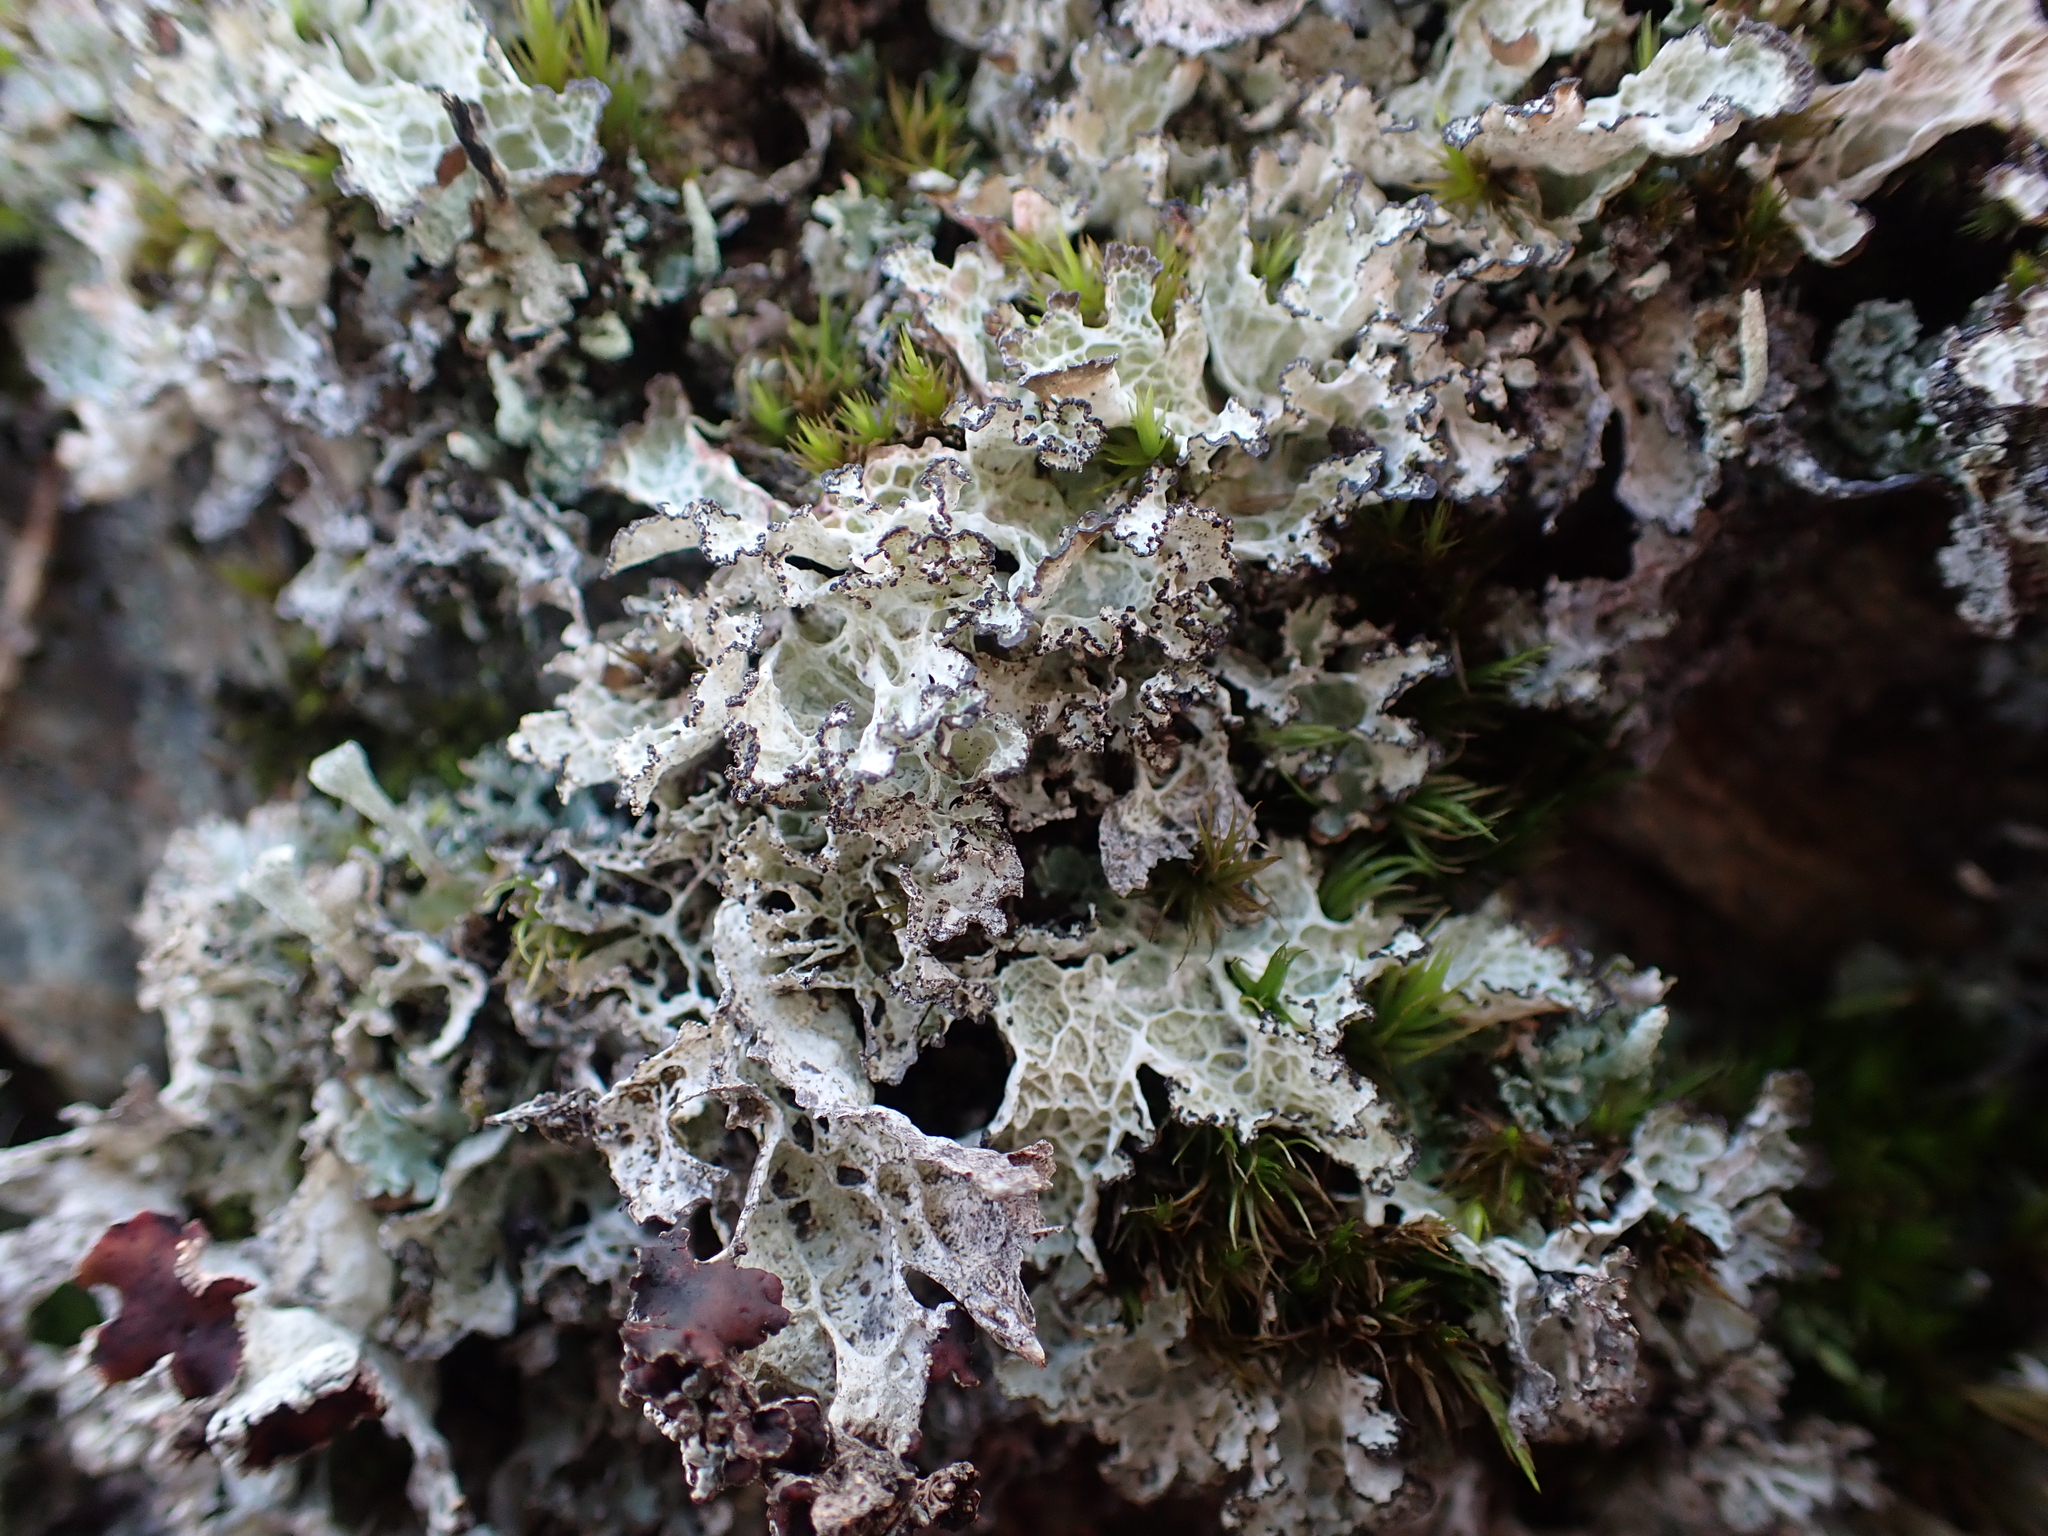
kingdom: Fungi
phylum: Ascomycota
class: Lecanoromycetes
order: Lecanorales
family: Parmeliaceae
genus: Platismatia
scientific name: Platismatia norvegica
